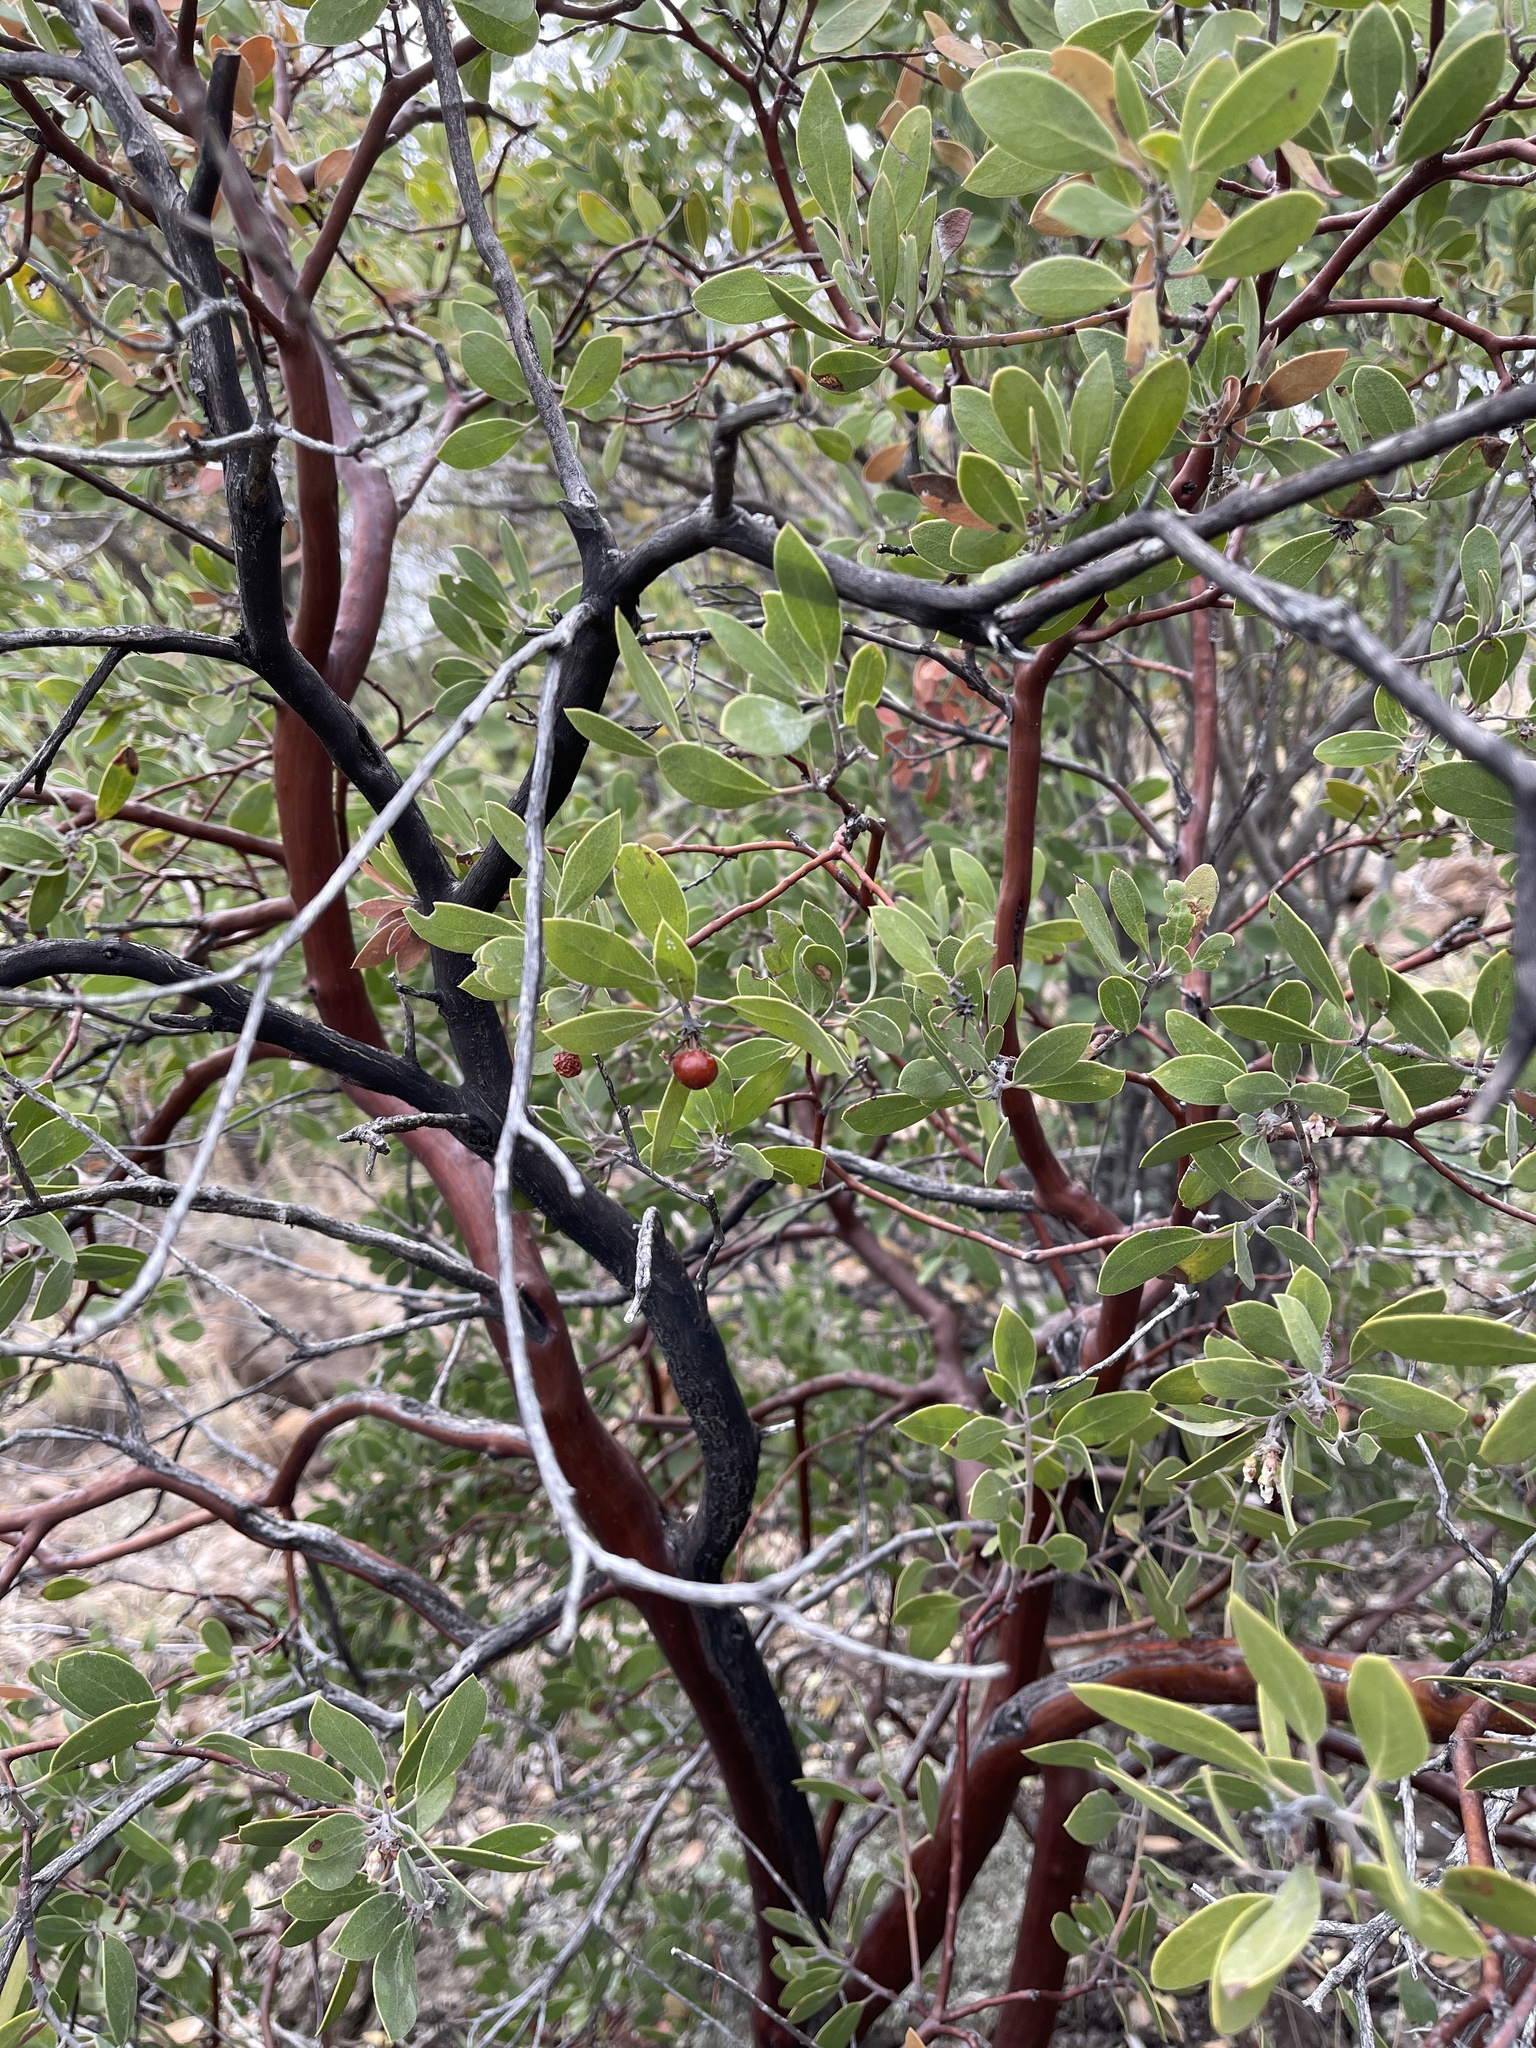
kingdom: Plantae
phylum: Tracheophyta
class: Magnoliopsida
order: Ericales
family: Ericaceae
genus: Arctostaphylos
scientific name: Arctostaphylos pungens
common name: Mexican manzanita
